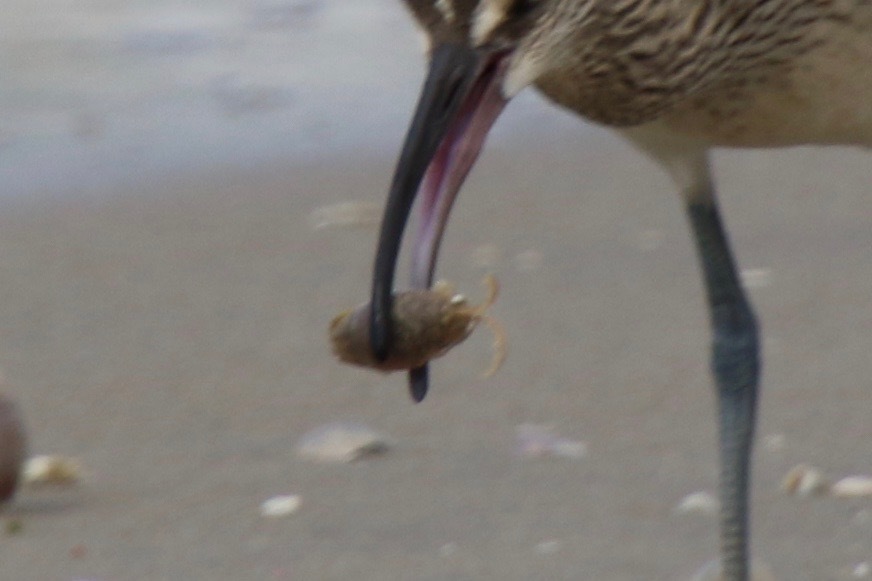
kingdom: Animalia
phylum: Arthropoda
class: Malacostraca
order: Decapoda
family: Hippidae
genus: Emerita
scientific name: Emerita talpoida
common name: Atlantic sand crab
